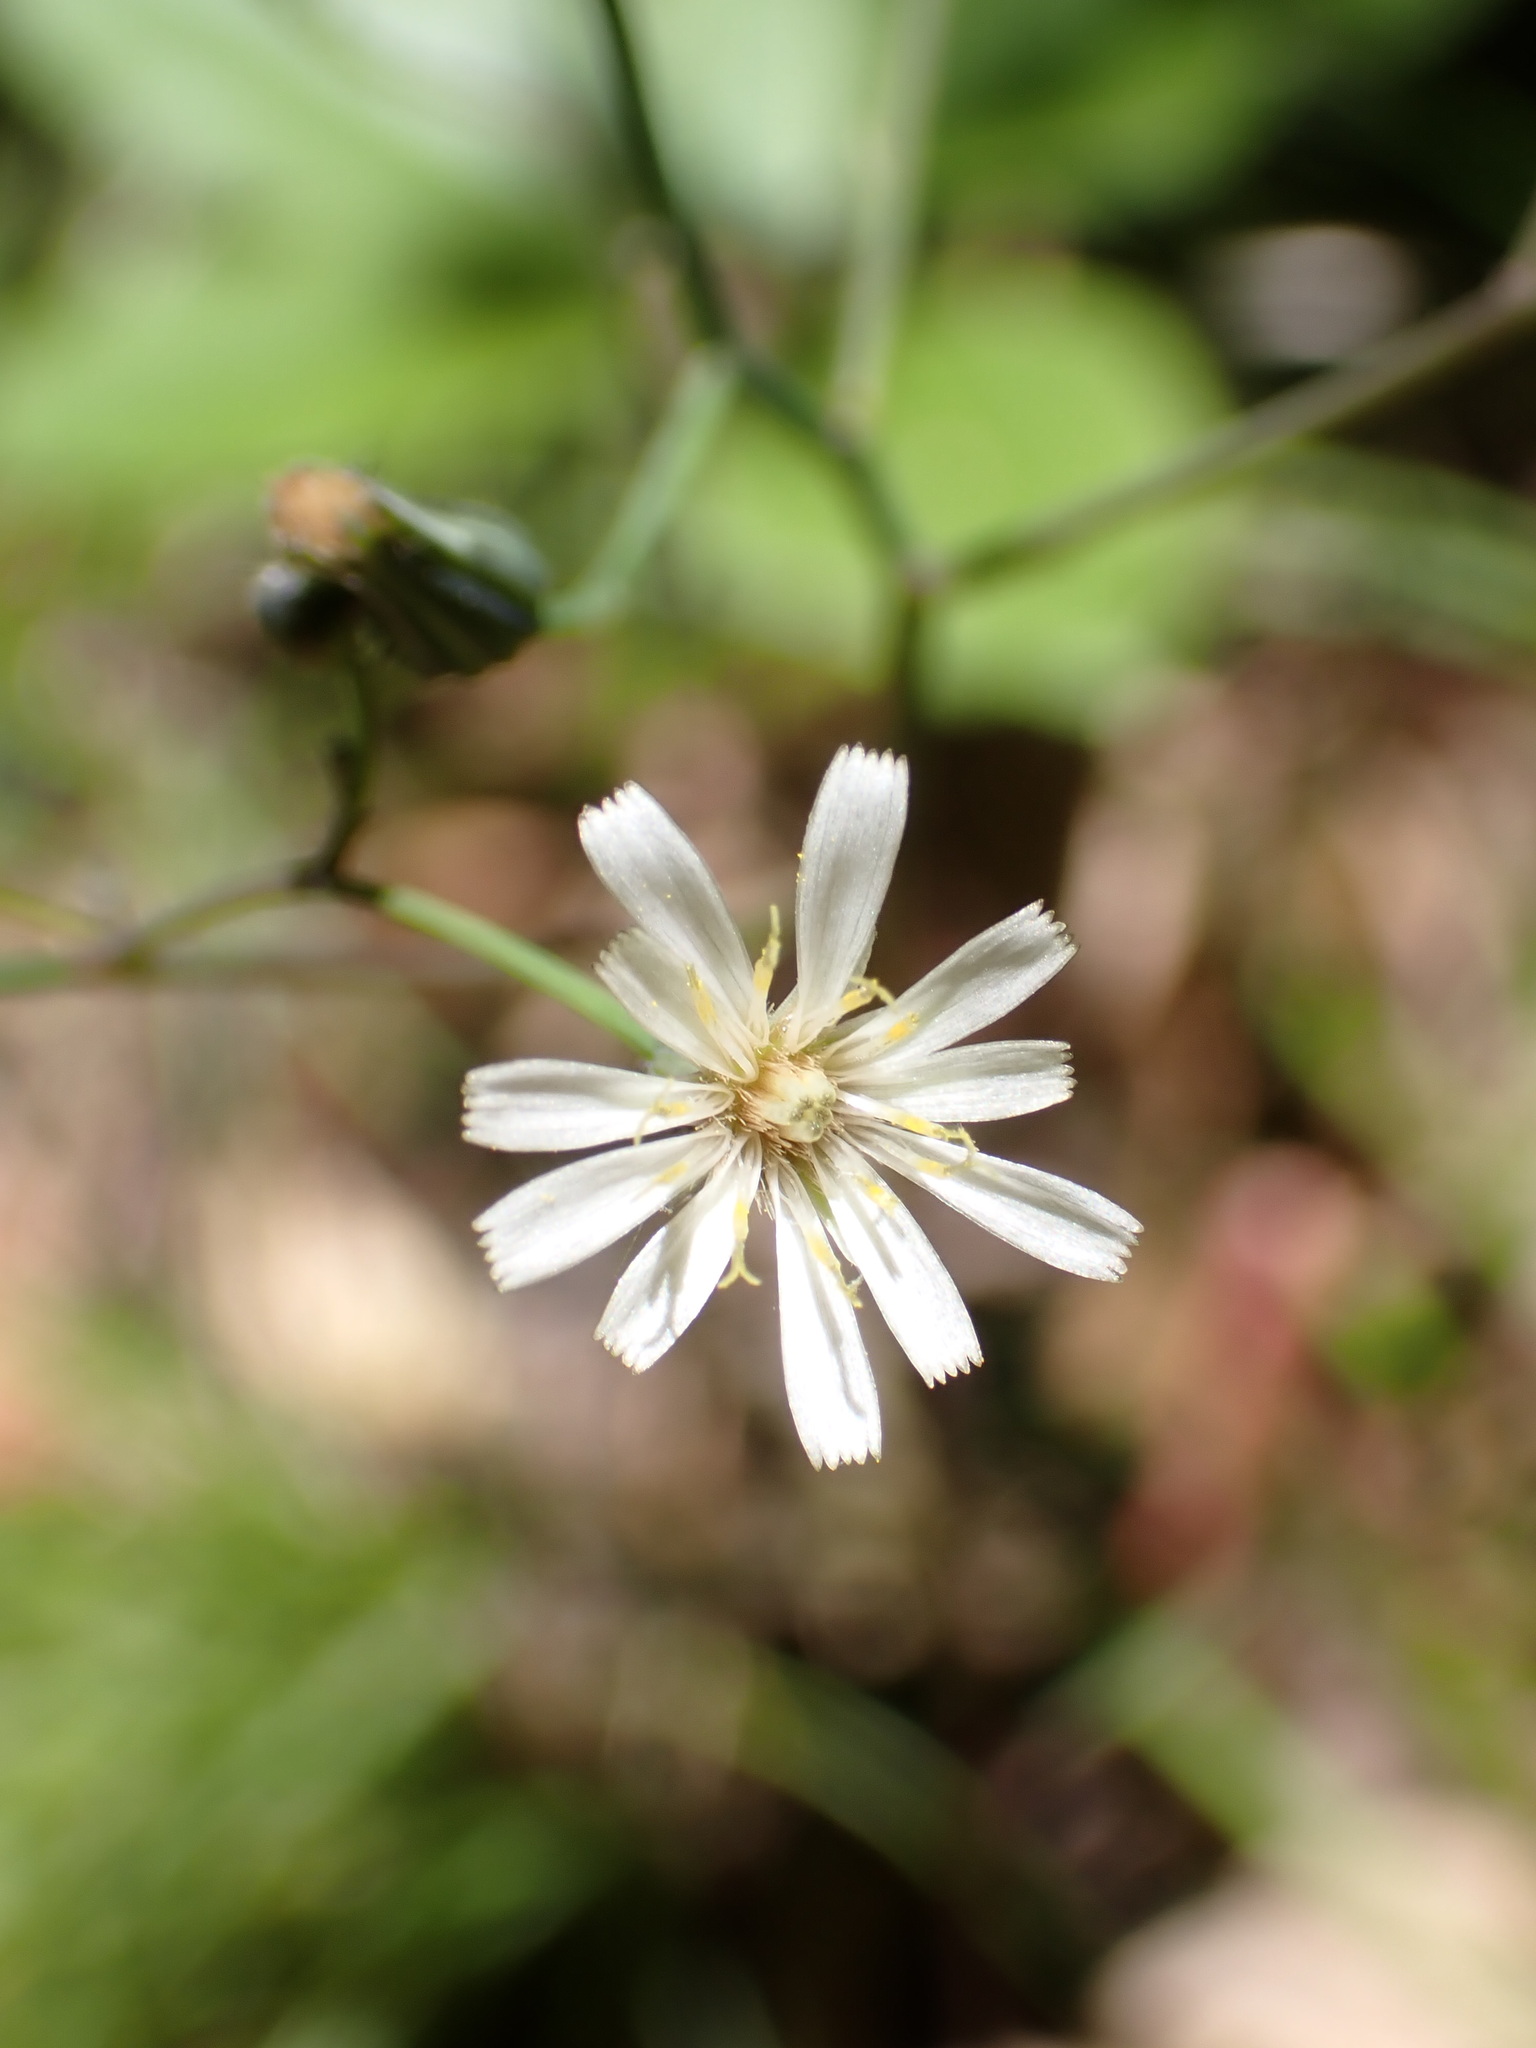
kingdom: Plantae
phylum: Tracheophyta
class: Magnoliopsida
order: Asterales
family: Asteraceae
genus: Hieracium
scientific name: Hieracium albiflorum
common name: White hawkweed
